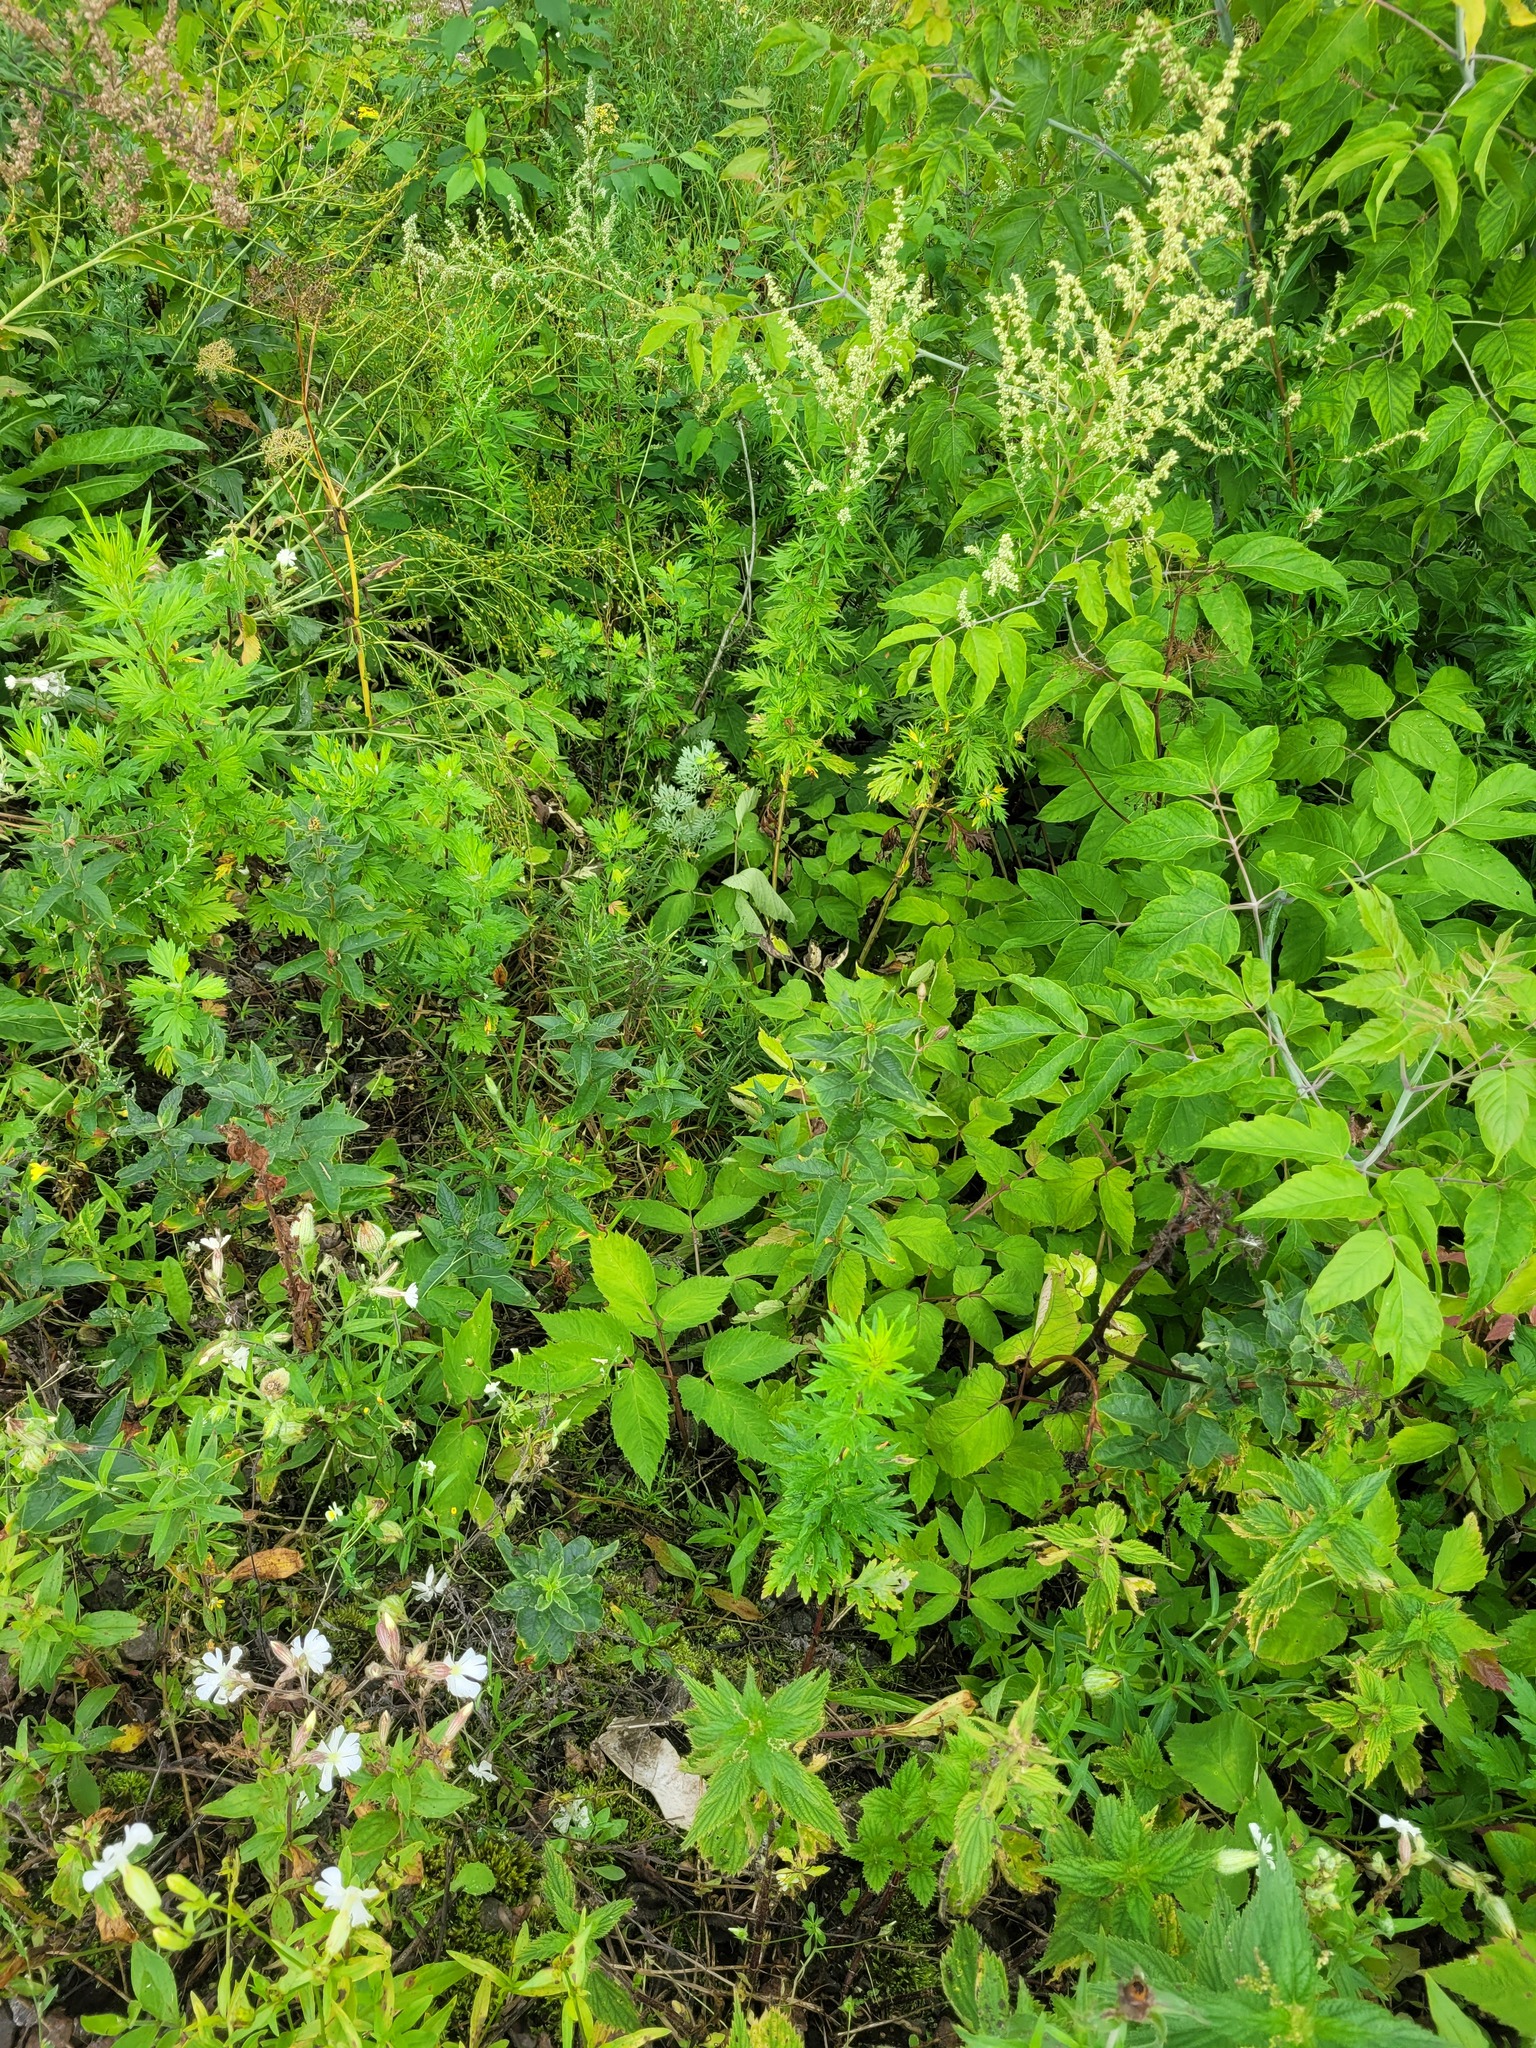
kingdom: Plantae
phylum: Tracheophyta
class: Magnoliopsida
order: Ericales
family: Primulaceae
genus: Lysimachia
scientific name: Lysimachia vulgaris
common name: Yellow loosestrife
